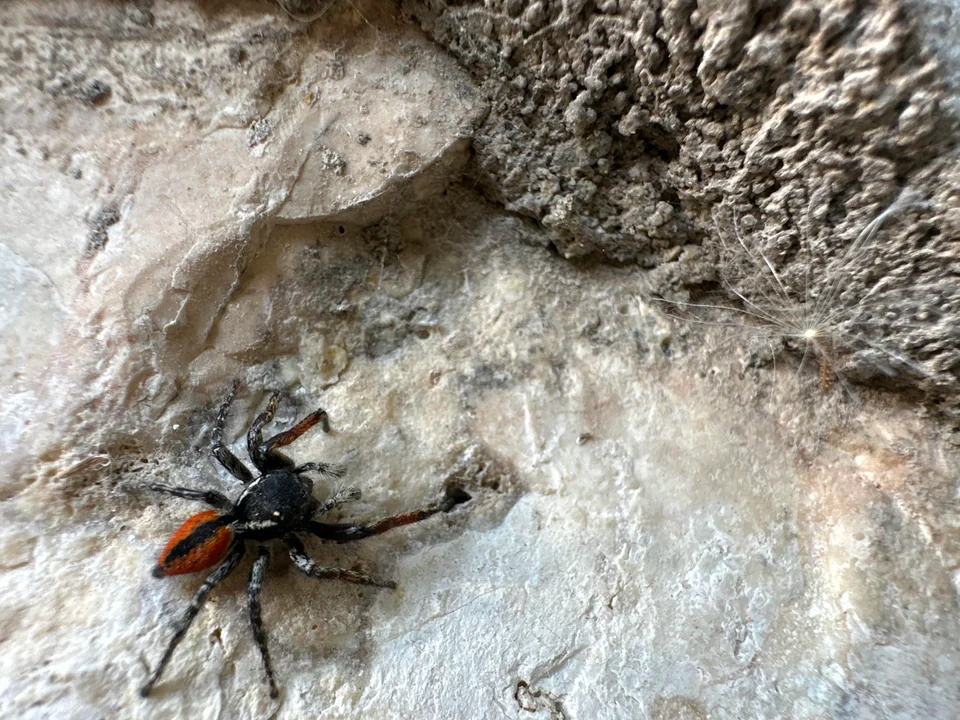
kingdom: Animalia
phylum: Arthropoda
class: Arachnida
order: Araneae
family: Salticidae
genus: Philaeus
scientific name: Philaeus chrysops
